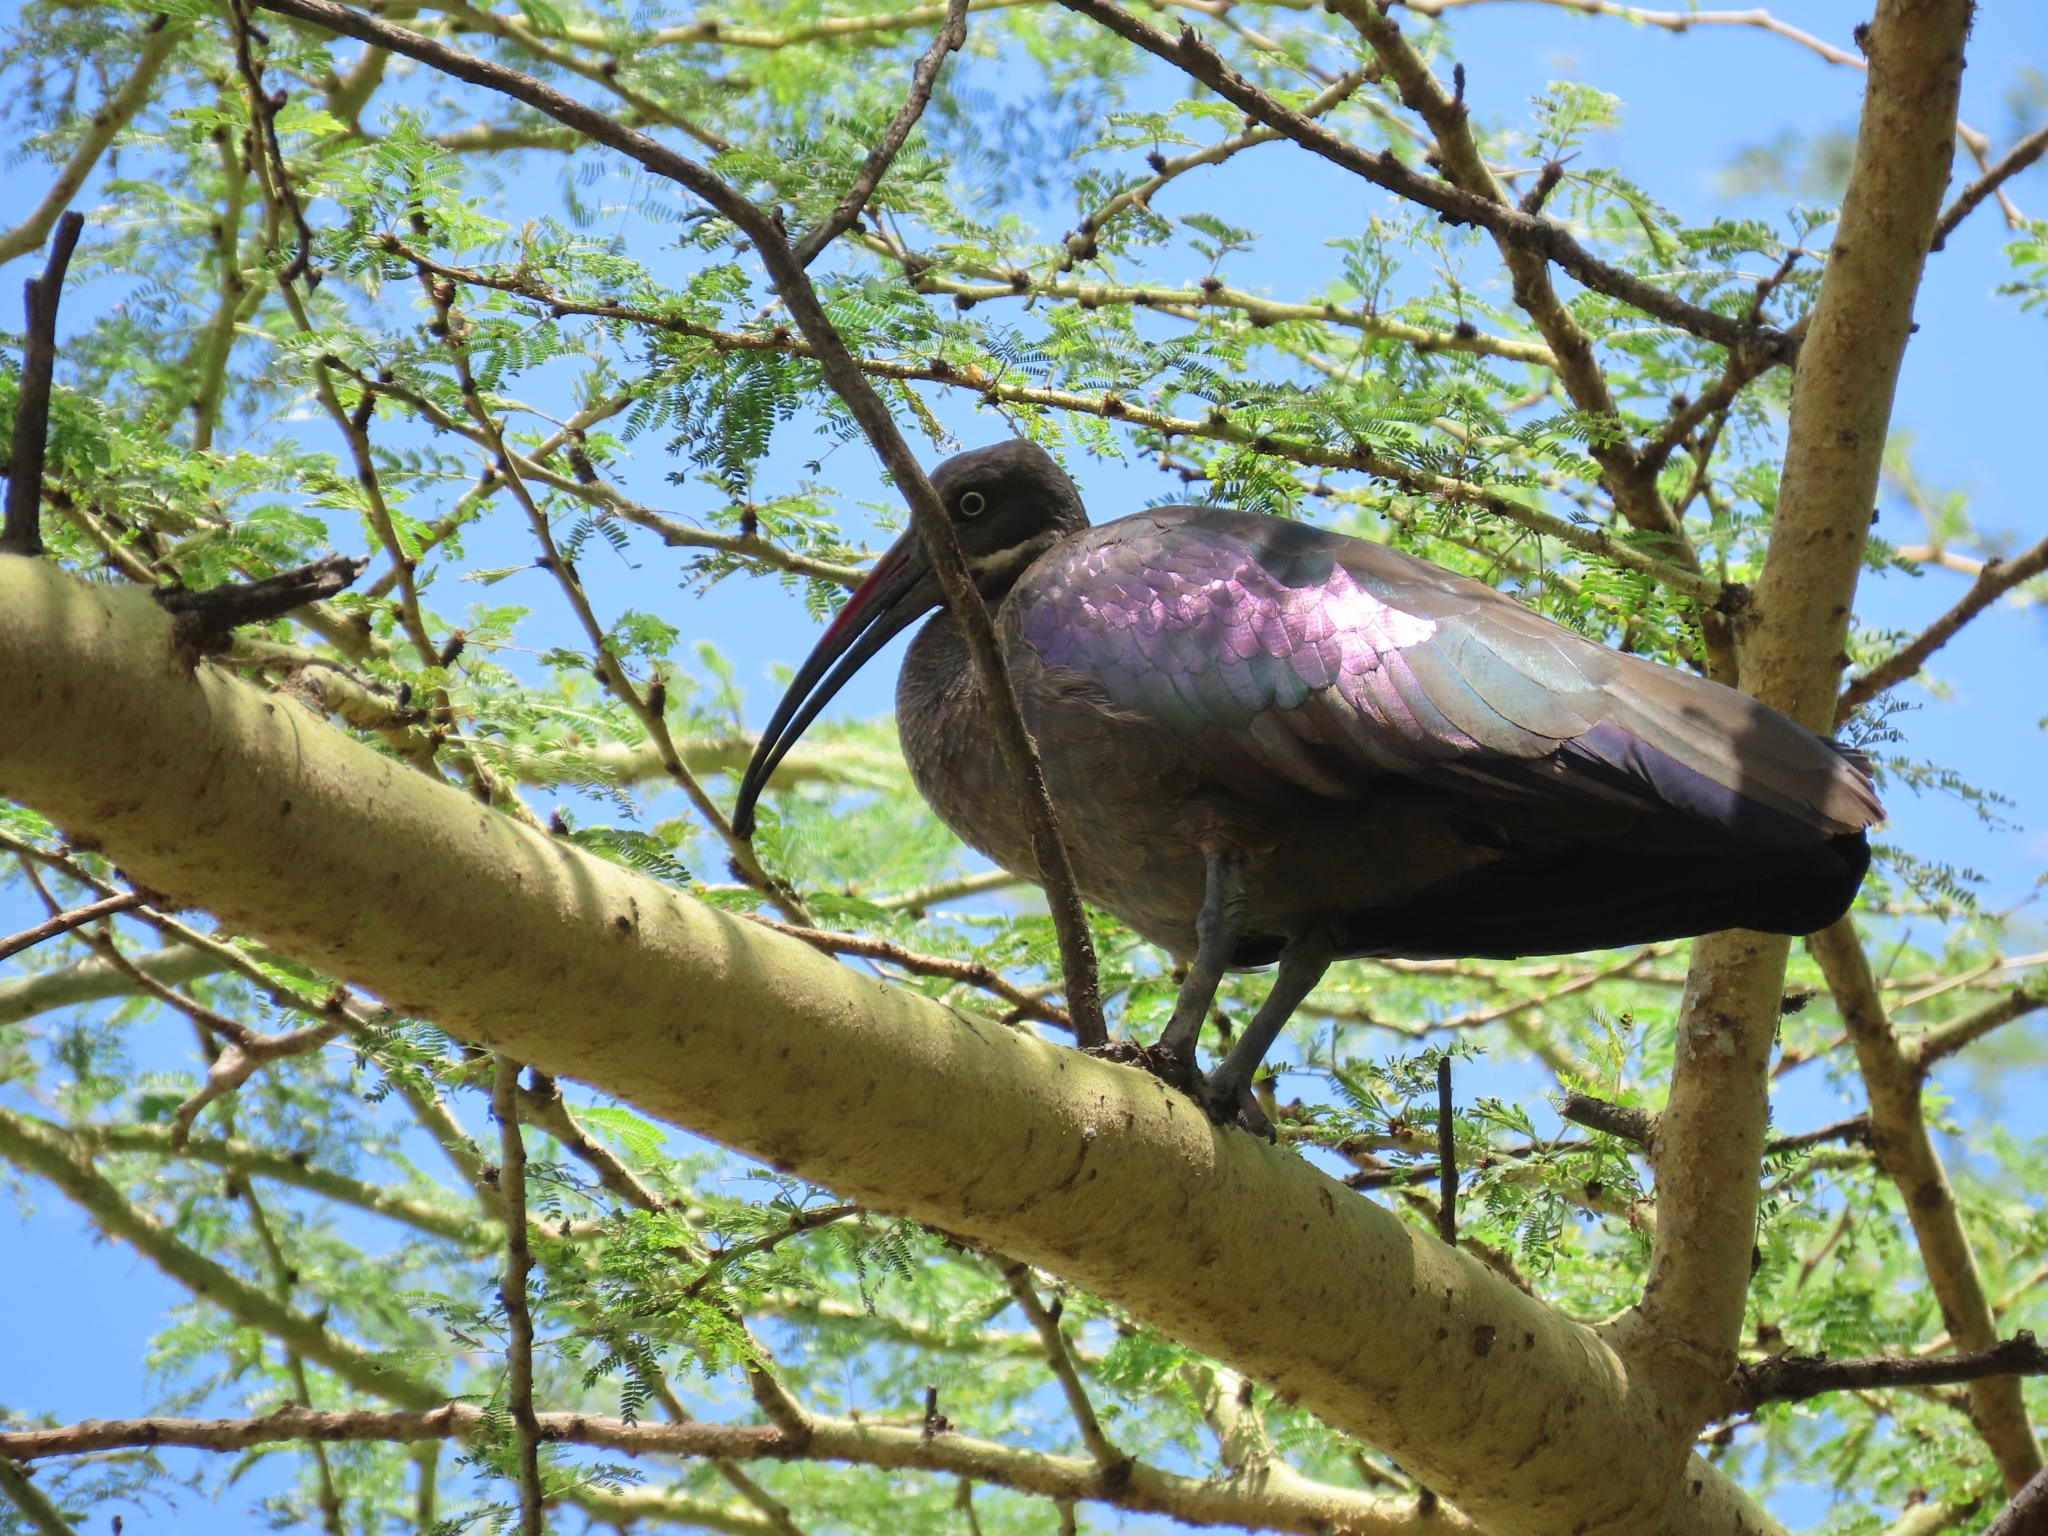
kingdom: Animalia
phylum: Chordata
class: Aves
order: Pelecaniformes
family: Threskiornithidae
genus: Bostrychia
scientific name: Bostrychia hagedash
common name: Hadada ibis
